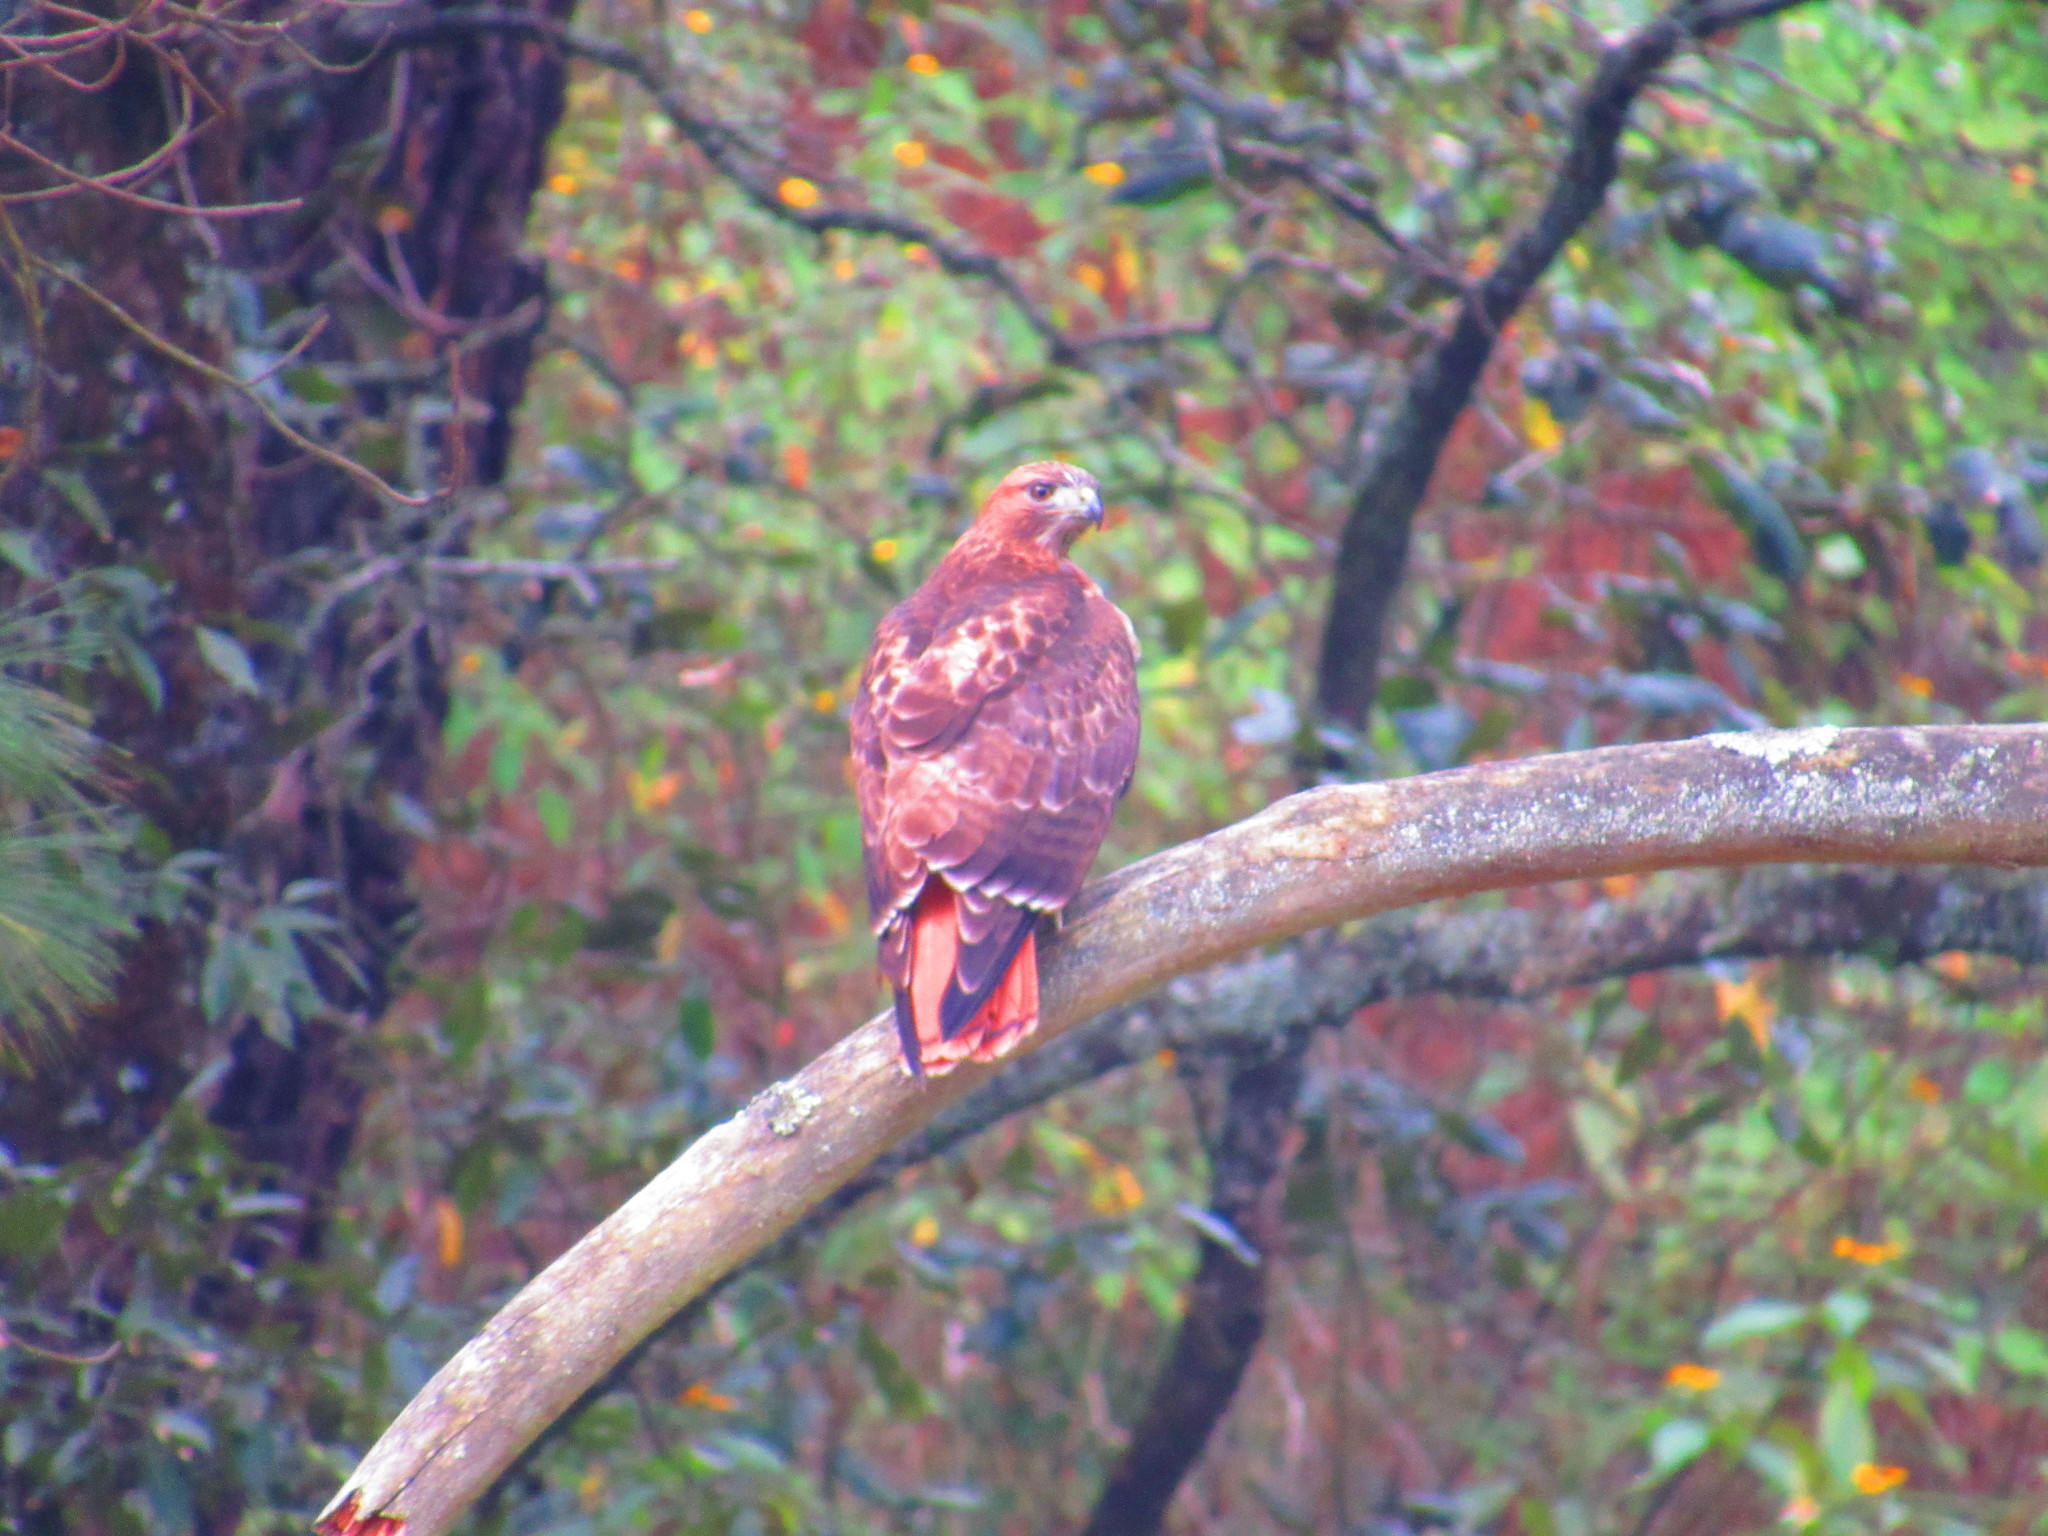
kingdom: Animalia
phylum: Chordata
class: Aves
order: Accipitriformes
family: Accipitridae
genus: Buteo
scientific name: Buteo jamaicensis
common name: Red-tailed hawk
